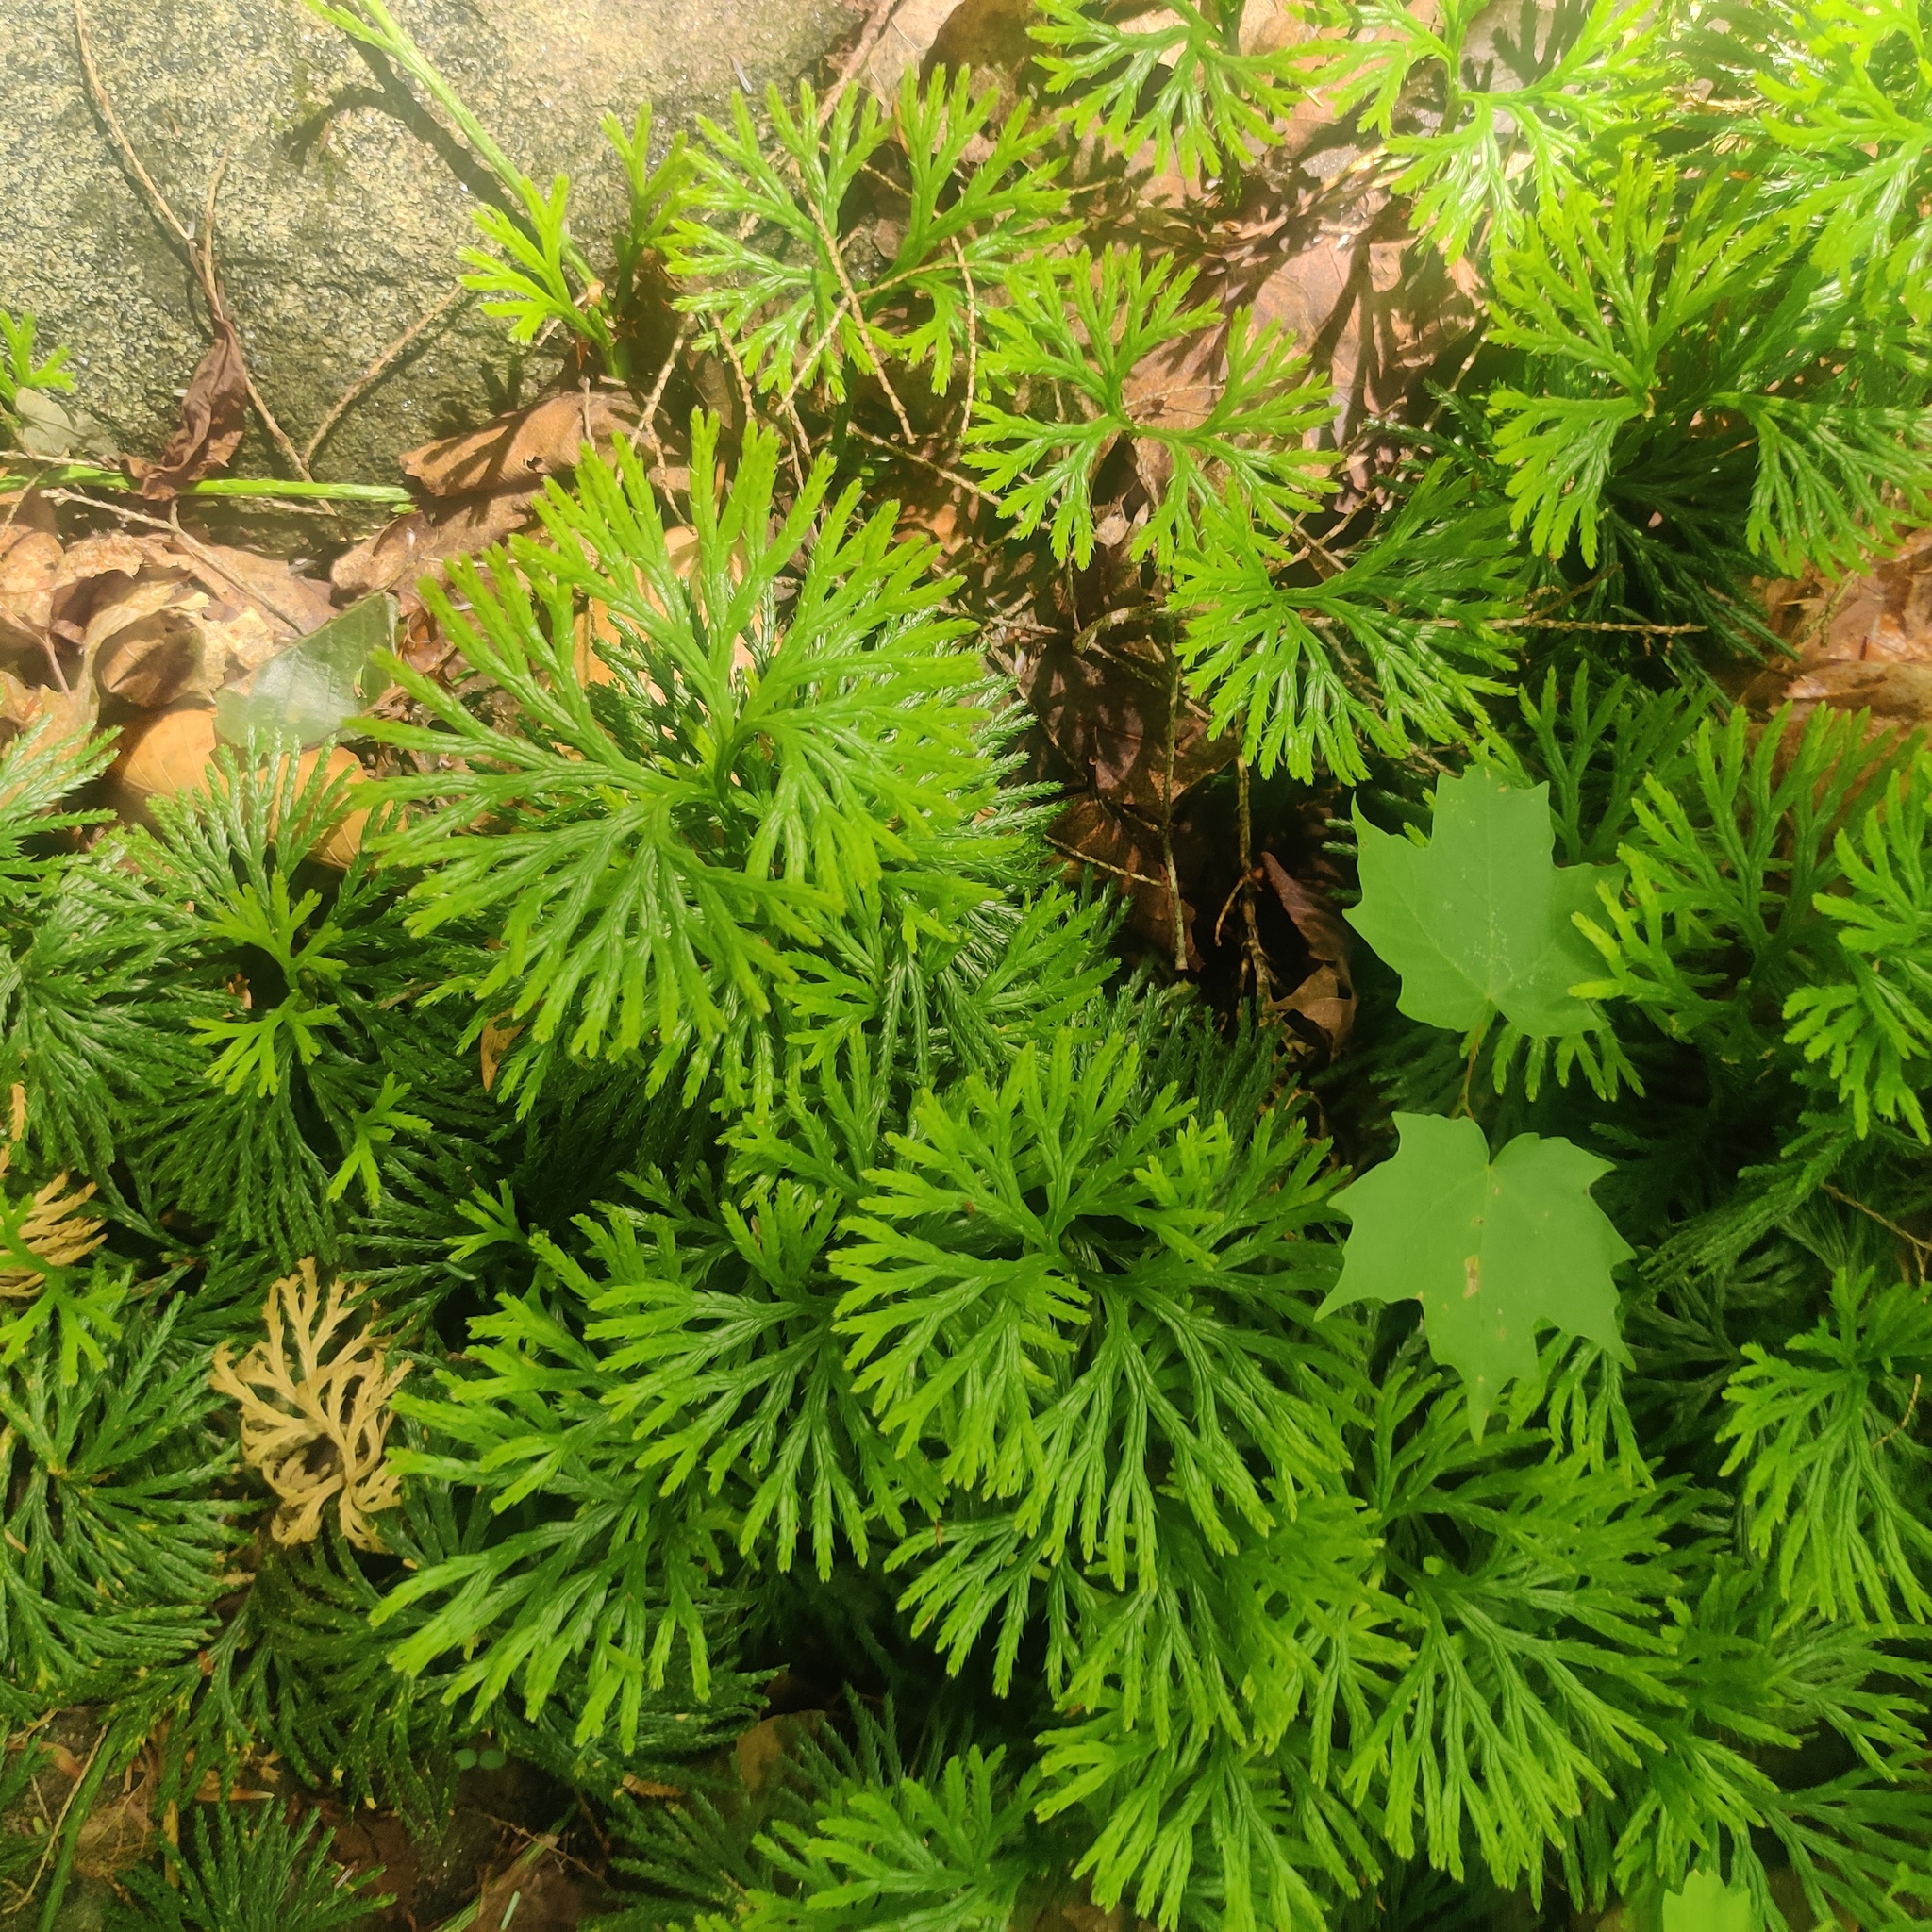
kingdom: Plantae
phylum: Tracheophyta
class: Lycopodiopsida
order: Lycopodiales
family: Lycopodiaceae
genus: Diphasiastrum
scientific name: Diphasiastrum digitatum
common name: Southern running-pine
